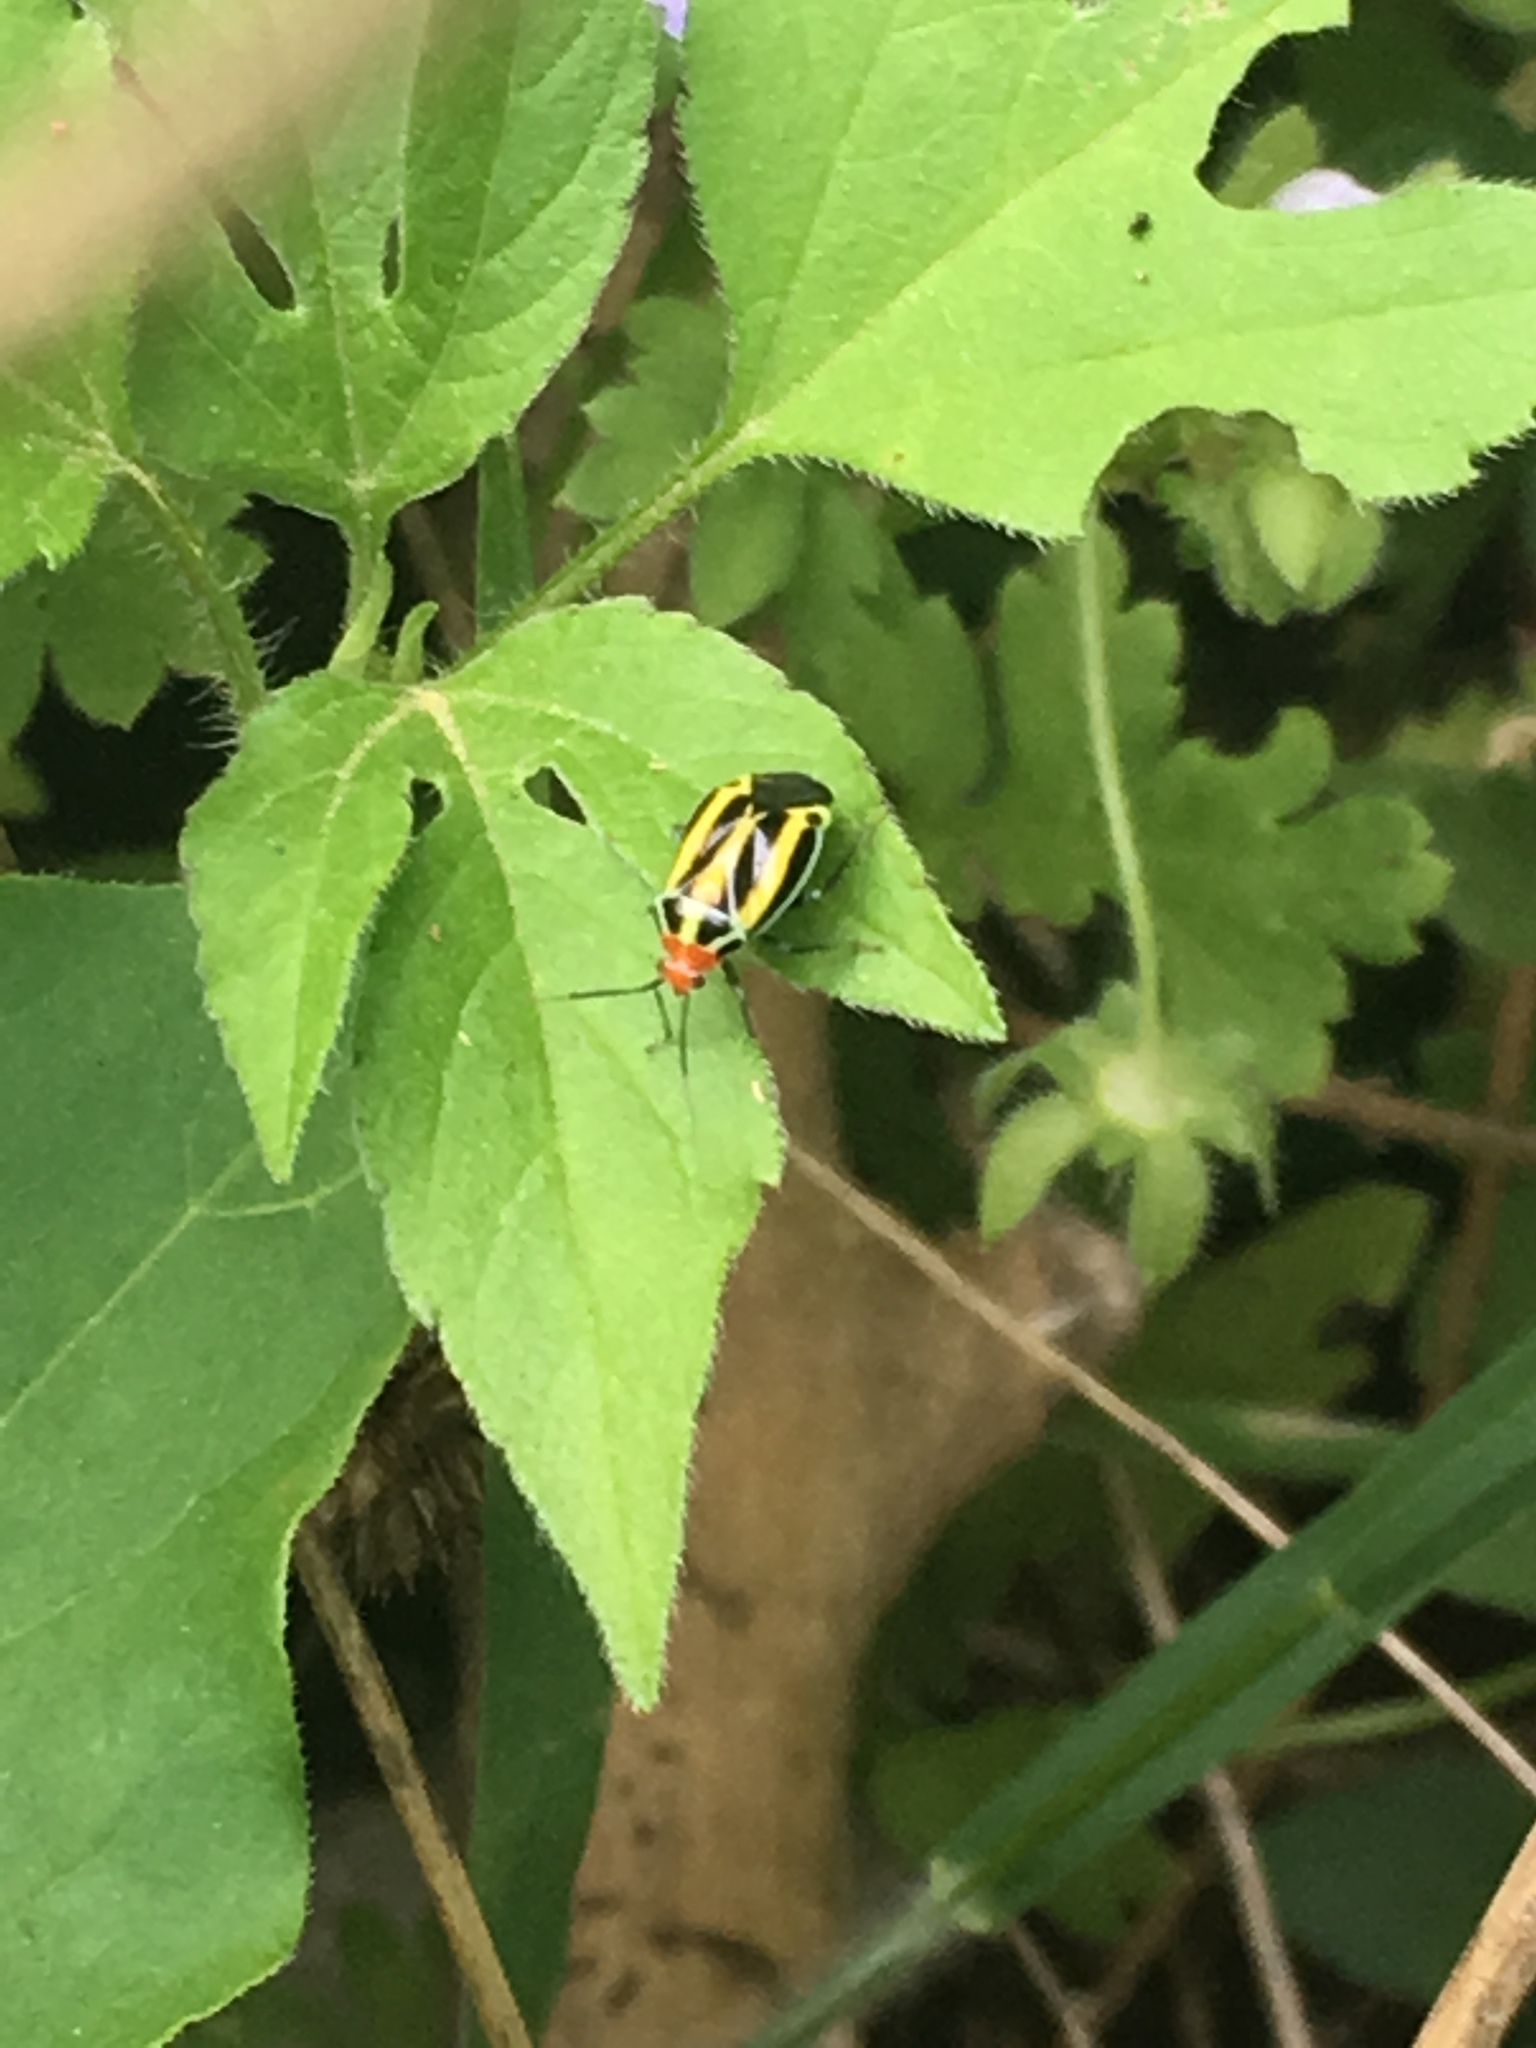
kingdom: Animalia
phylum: Arthropoda
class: Insecta
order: Hemiptera
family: Miridae
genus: Poecilocapsus
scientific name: Poecilocapsus lineatus
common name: Four-lined plant bug
